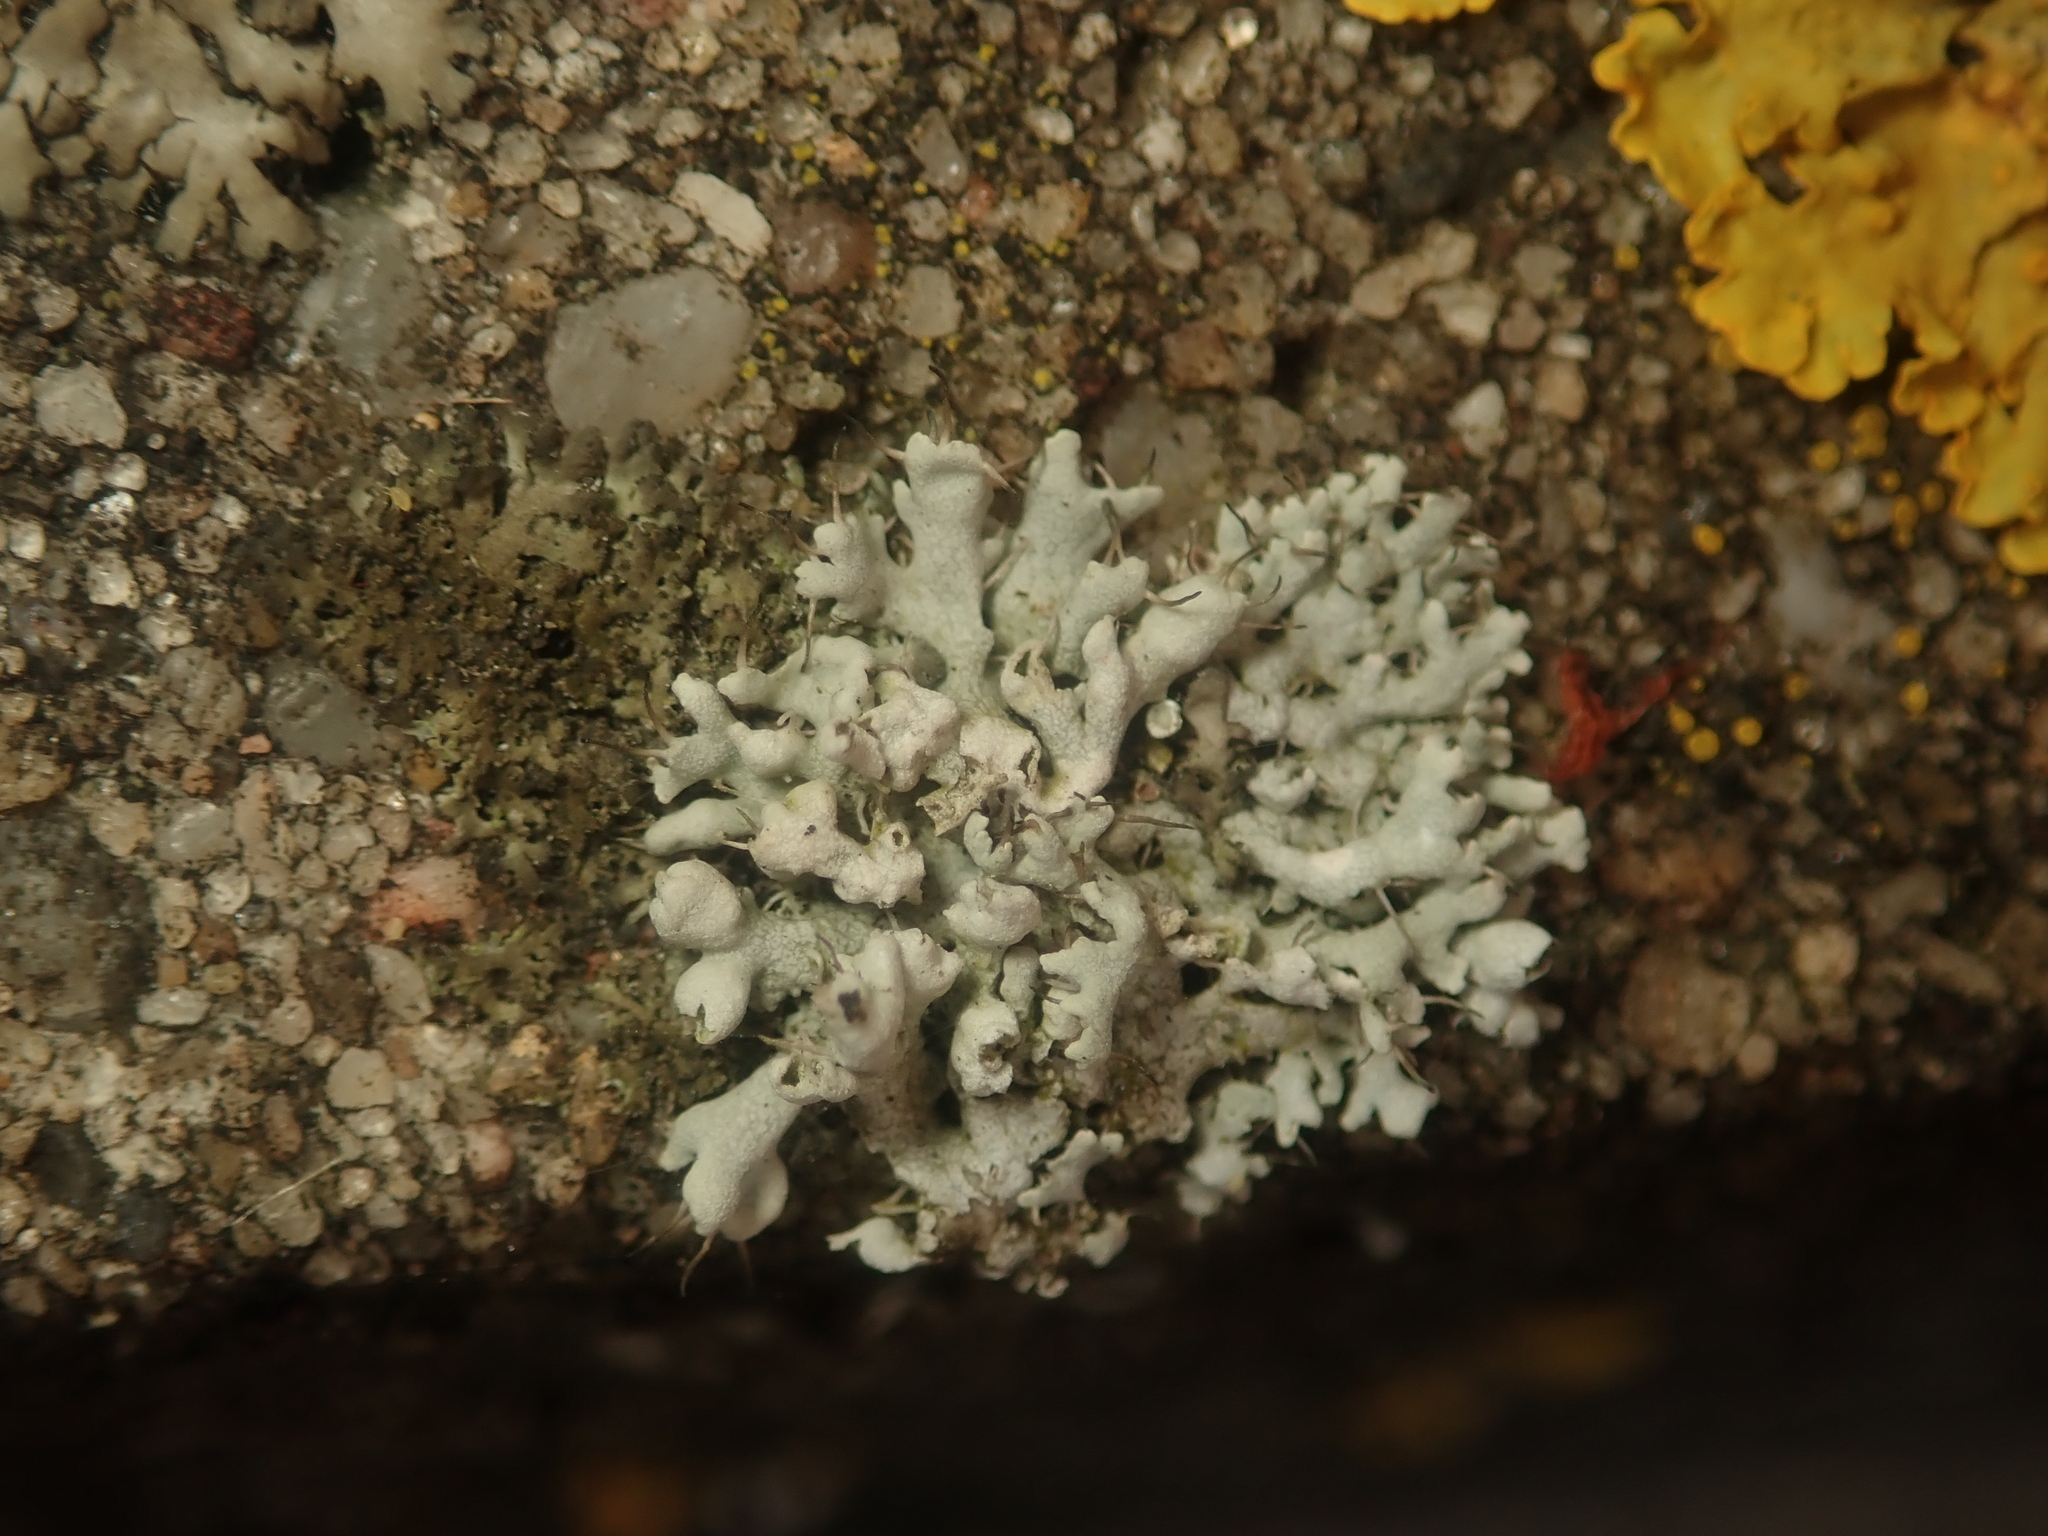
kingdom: Fungi
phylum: Ascomycota
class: Lecanoromycetes
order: Caliciales
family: Physciaceae
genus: Physcia
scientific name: Physcia adscendens
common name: Hooded rosette lichen
